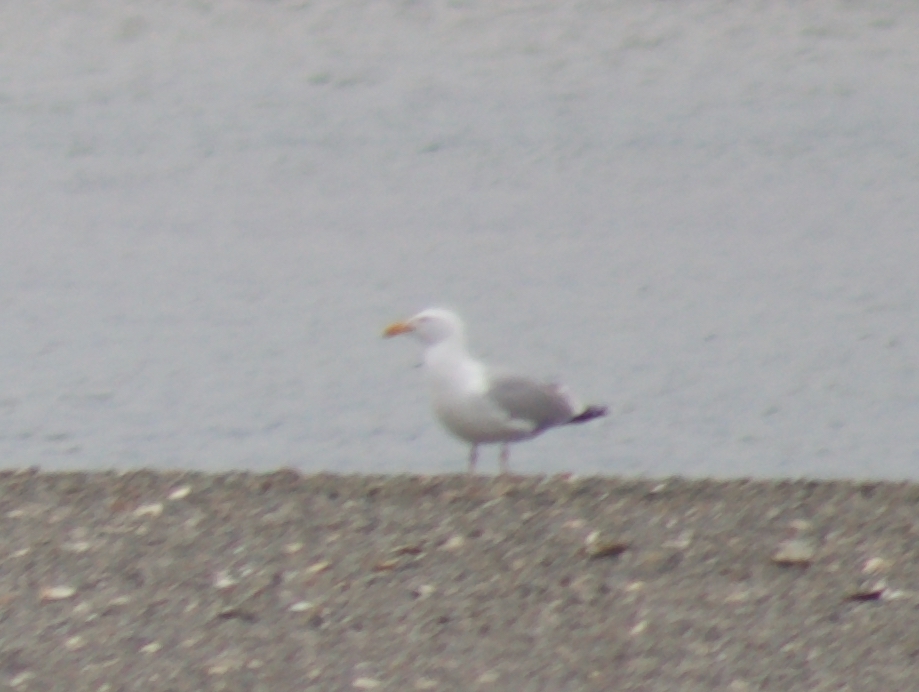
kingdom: Animalia
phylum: Chordata
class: Aves
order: Charadriiformes
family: Laridae
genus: Larus
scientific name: Larus argentatus
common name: Herring gull
